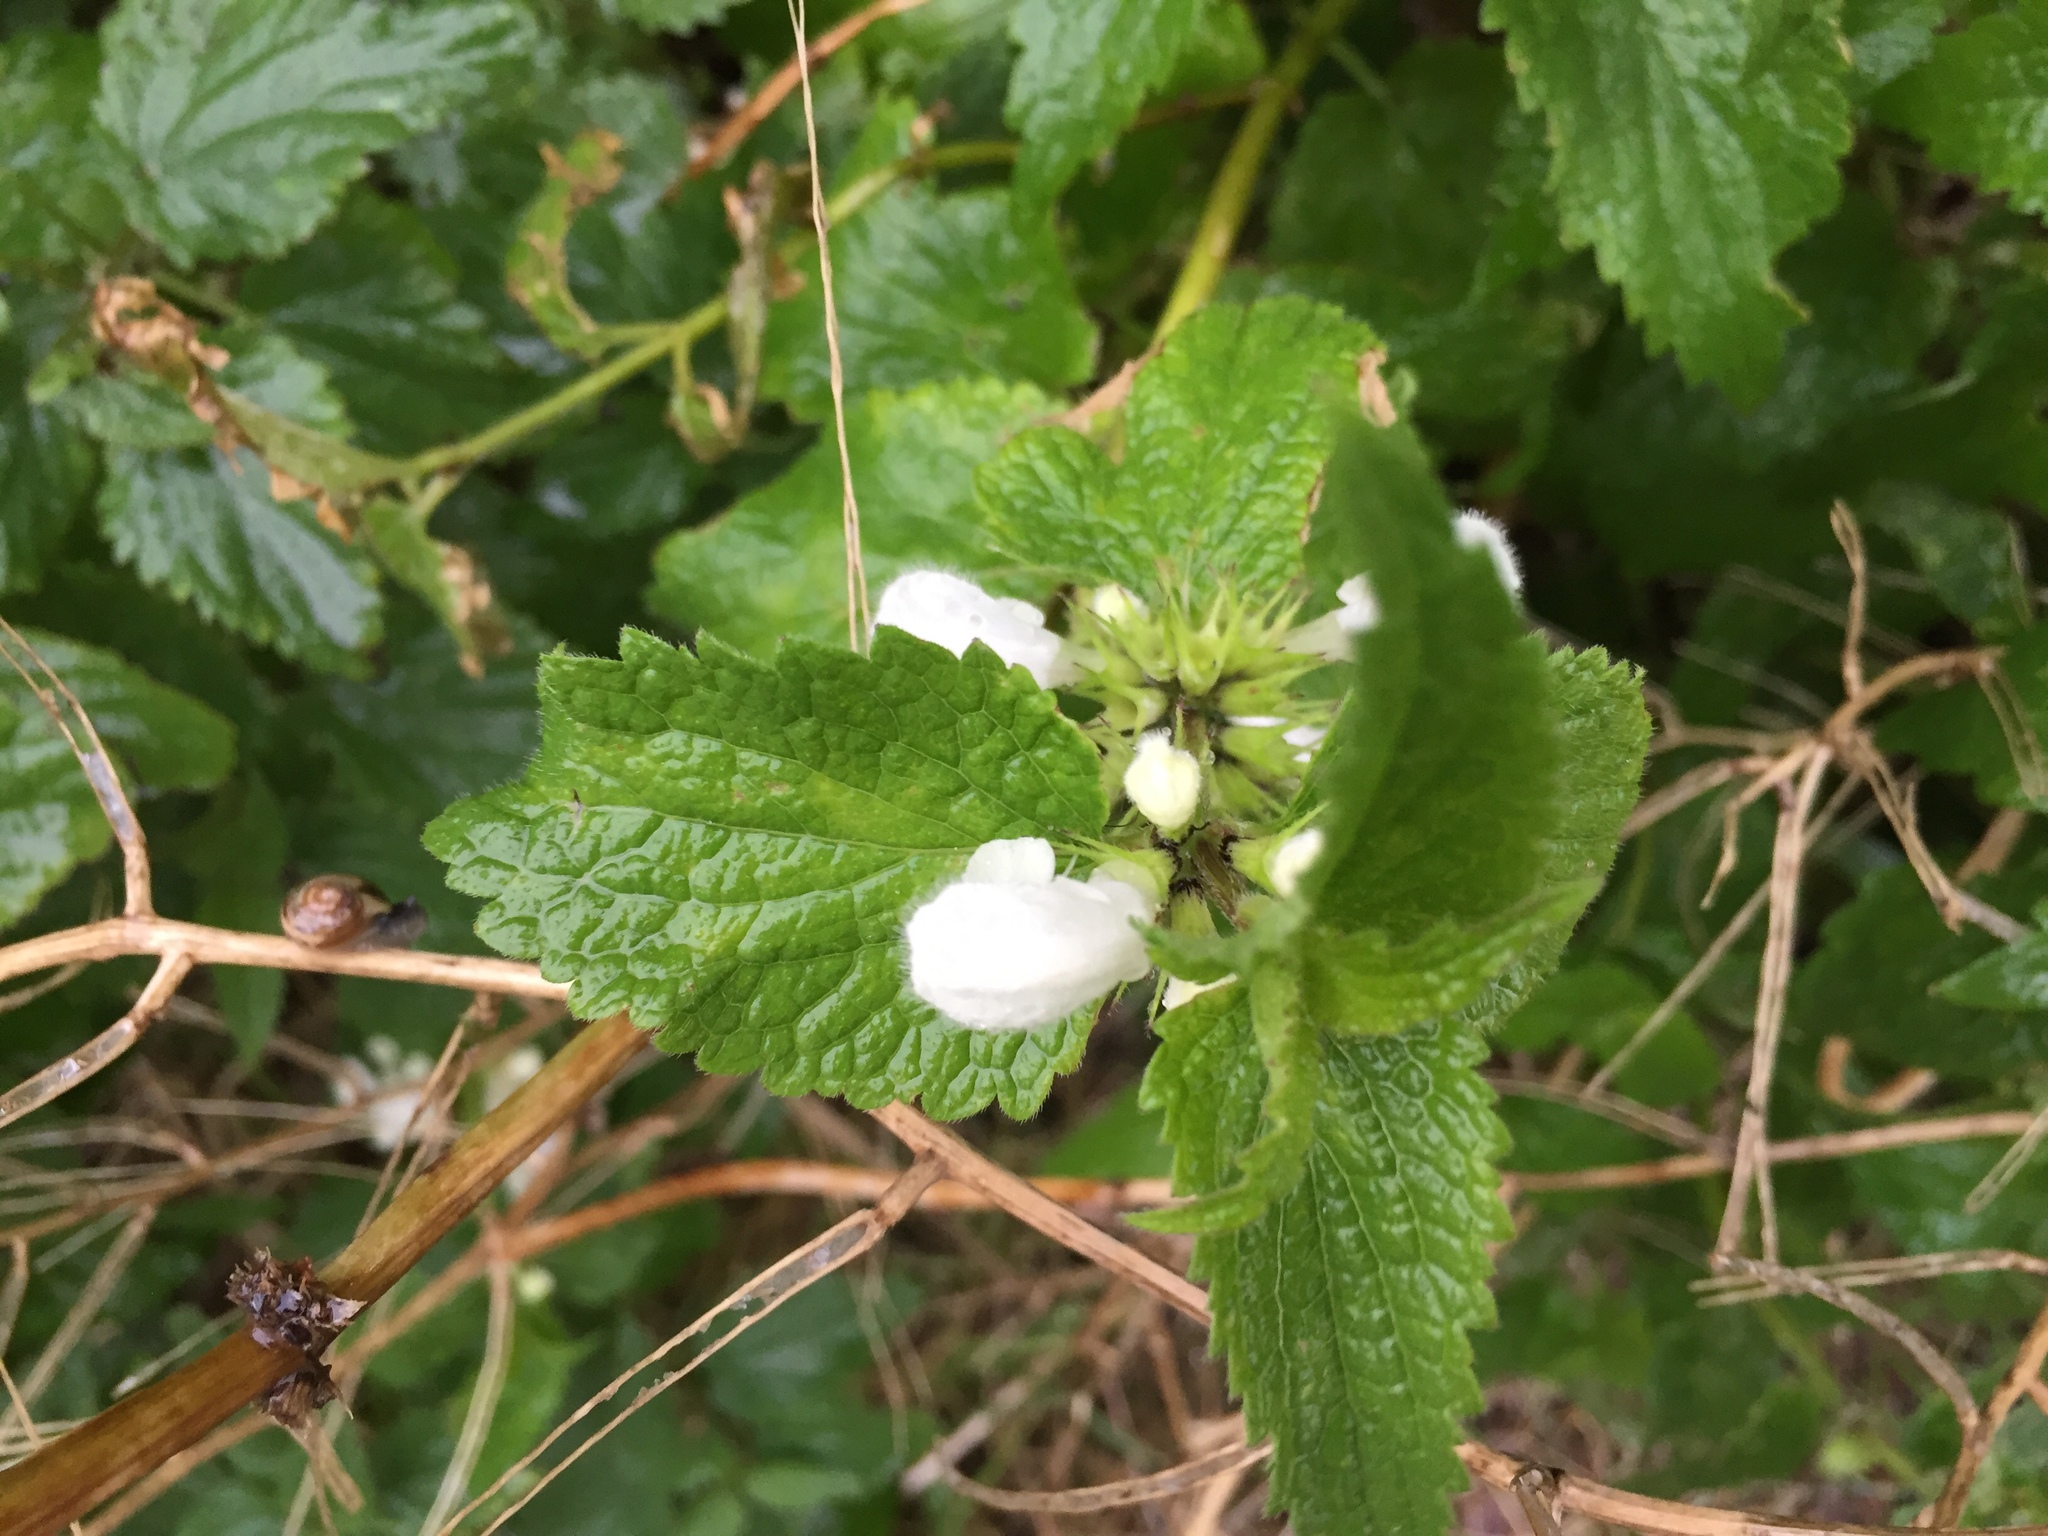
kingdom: Plantae
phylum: Tracheophyta
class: Magnoliopsida
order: Lamiales
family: Lamiaceae
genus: Lamium
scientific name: Lamium album
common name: White dead-nettle
